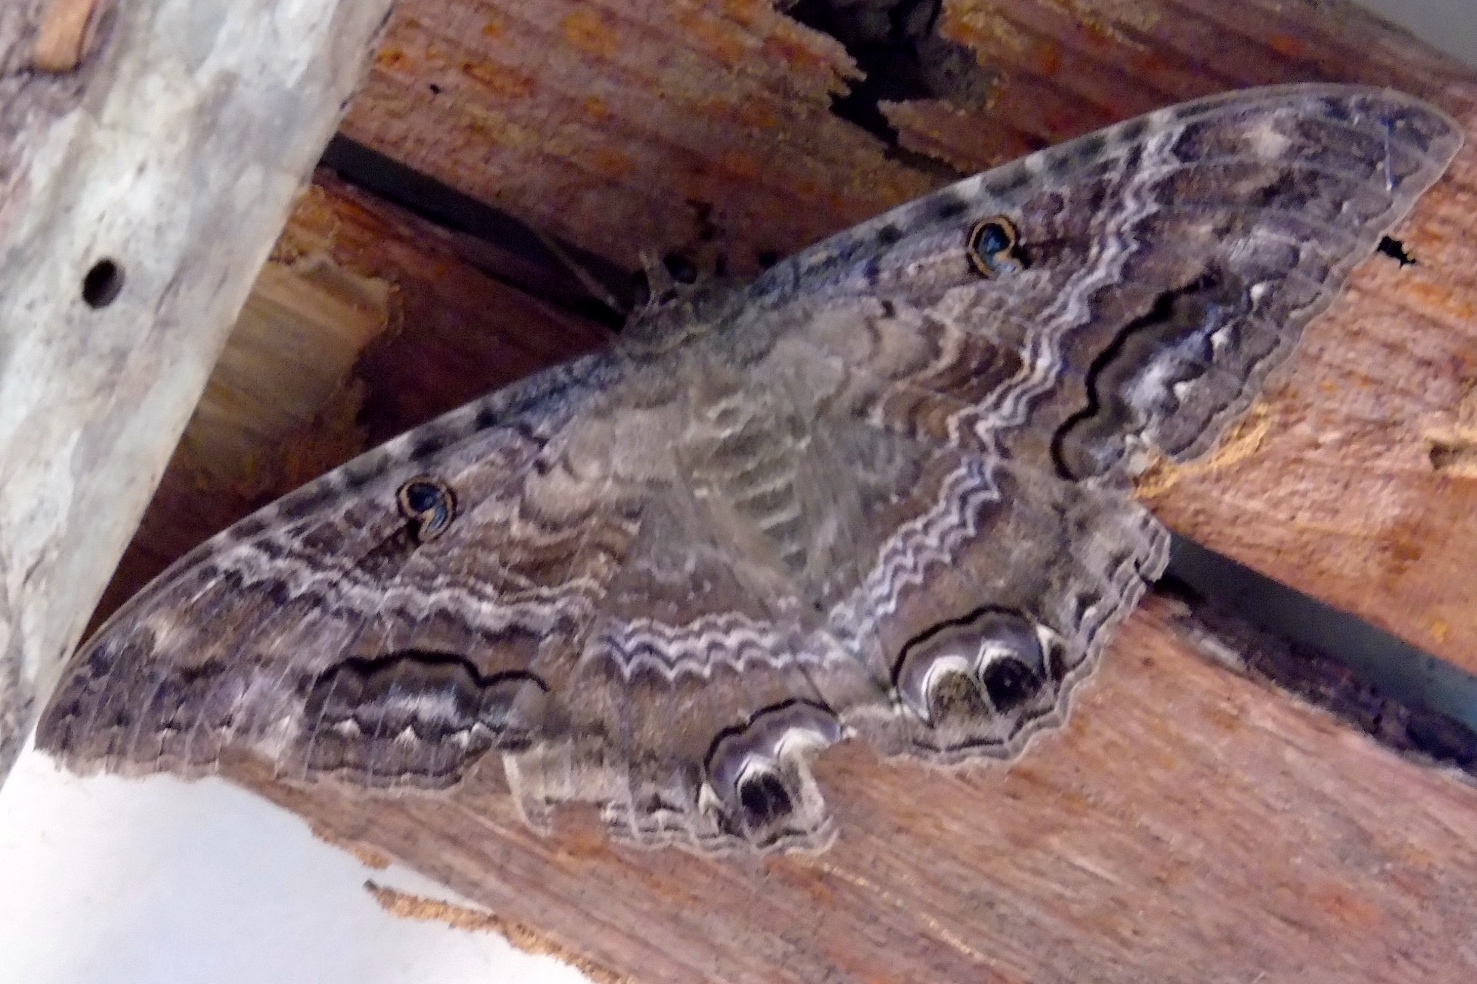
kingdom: Animalia
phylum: Arthropoda
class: Insecta
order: Lepidoptera
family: Erebidae
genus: Ascalapha
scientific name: Ascalapha odorata
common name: Black witch
